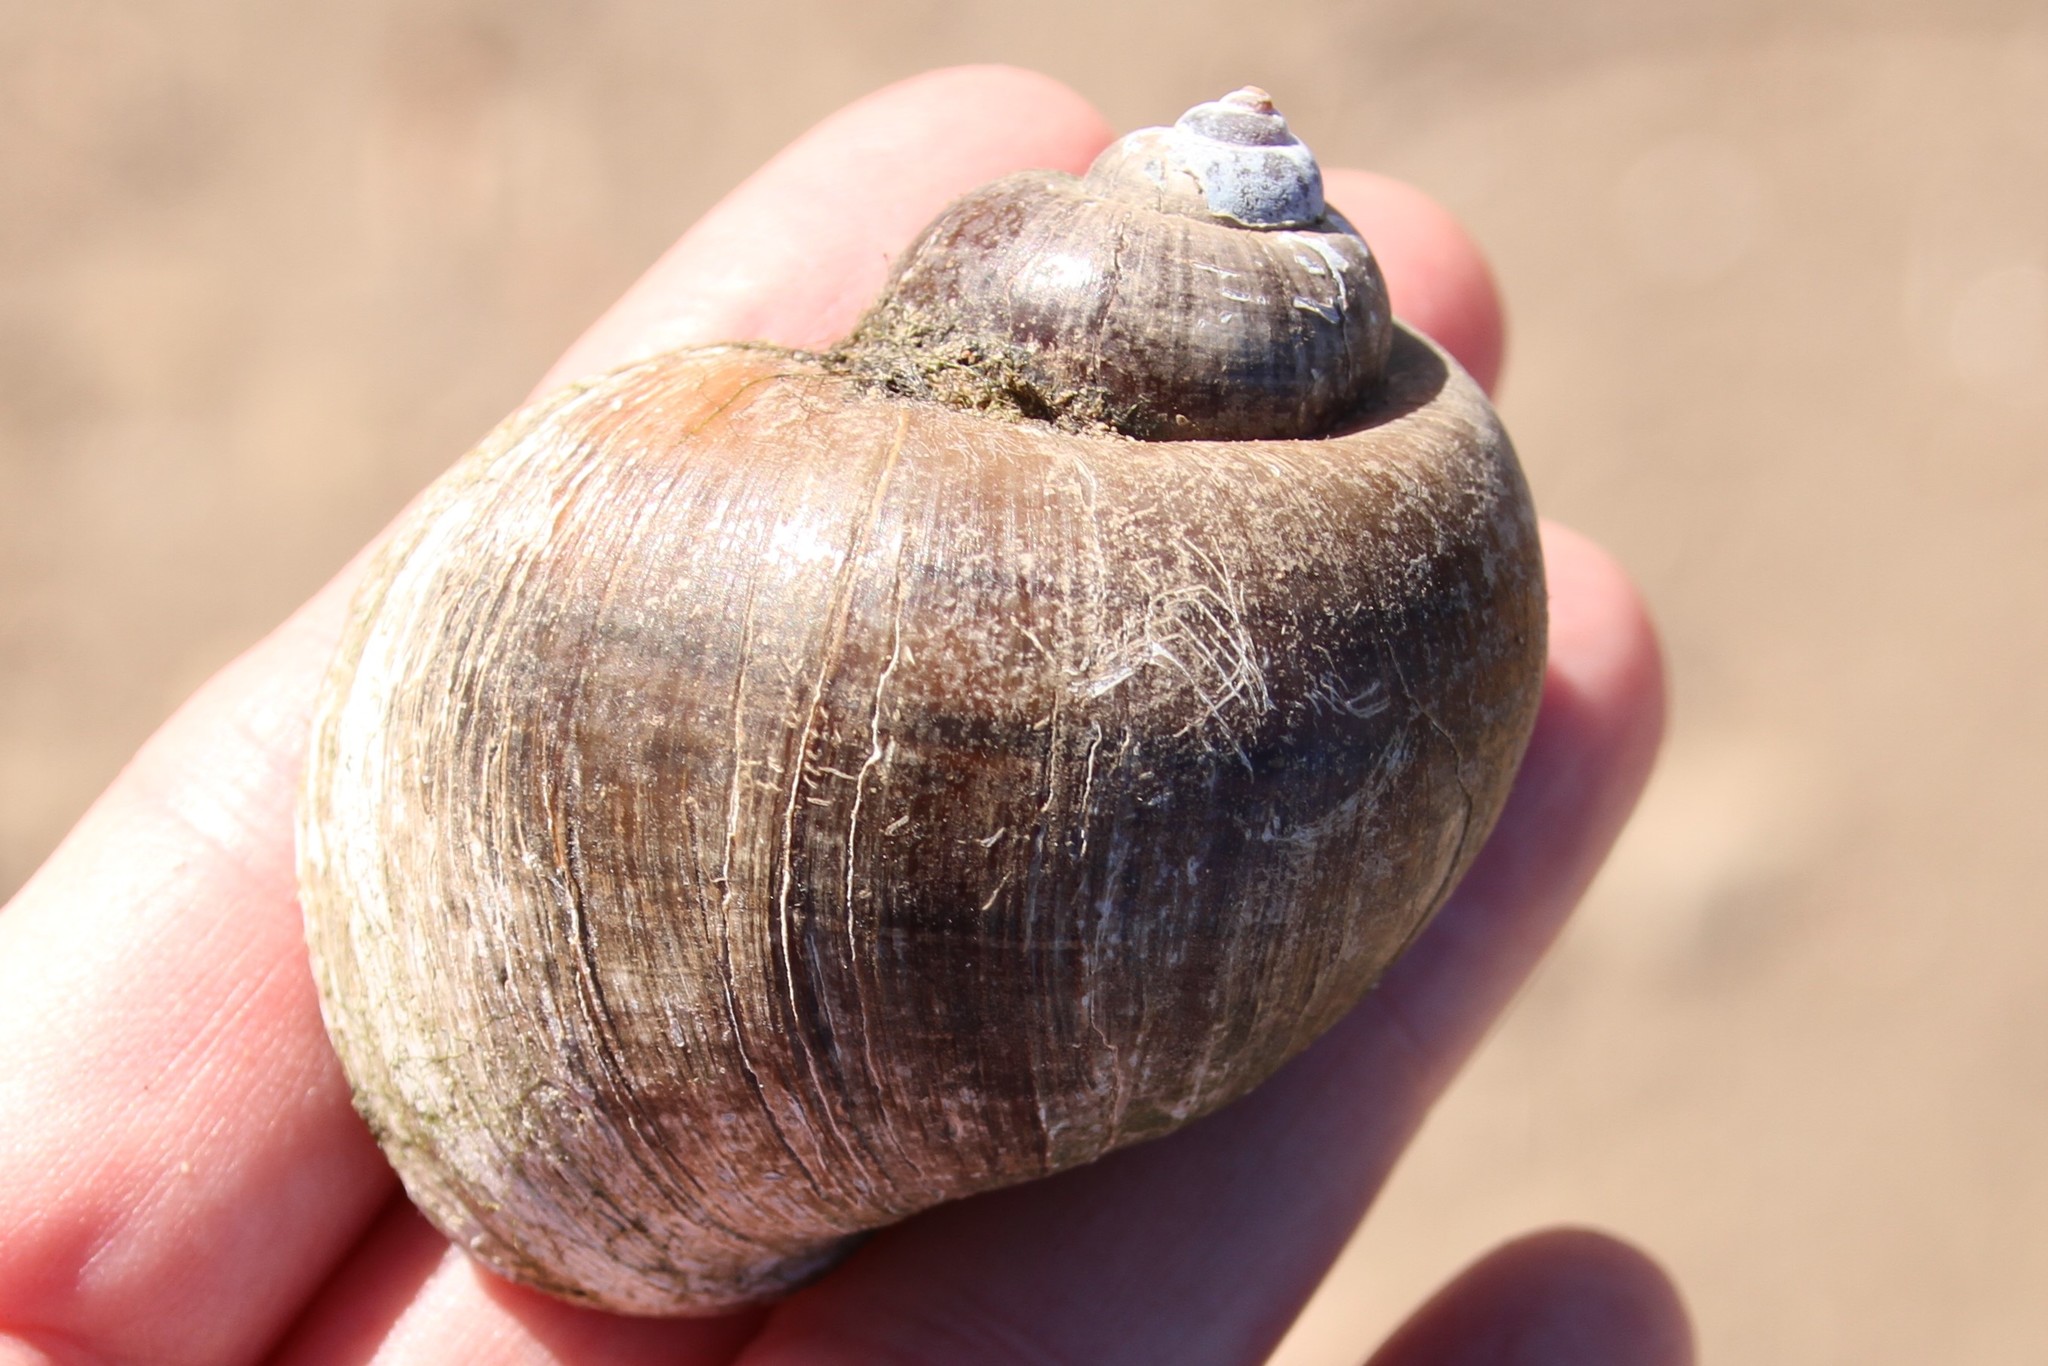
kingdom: Animalia
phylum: Mollusca
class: Gastropoda
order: Architaenioglossa
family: Ampullariidae
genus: Pomacea
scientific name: Pomacea canaliculata
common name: Channeled applesnail
